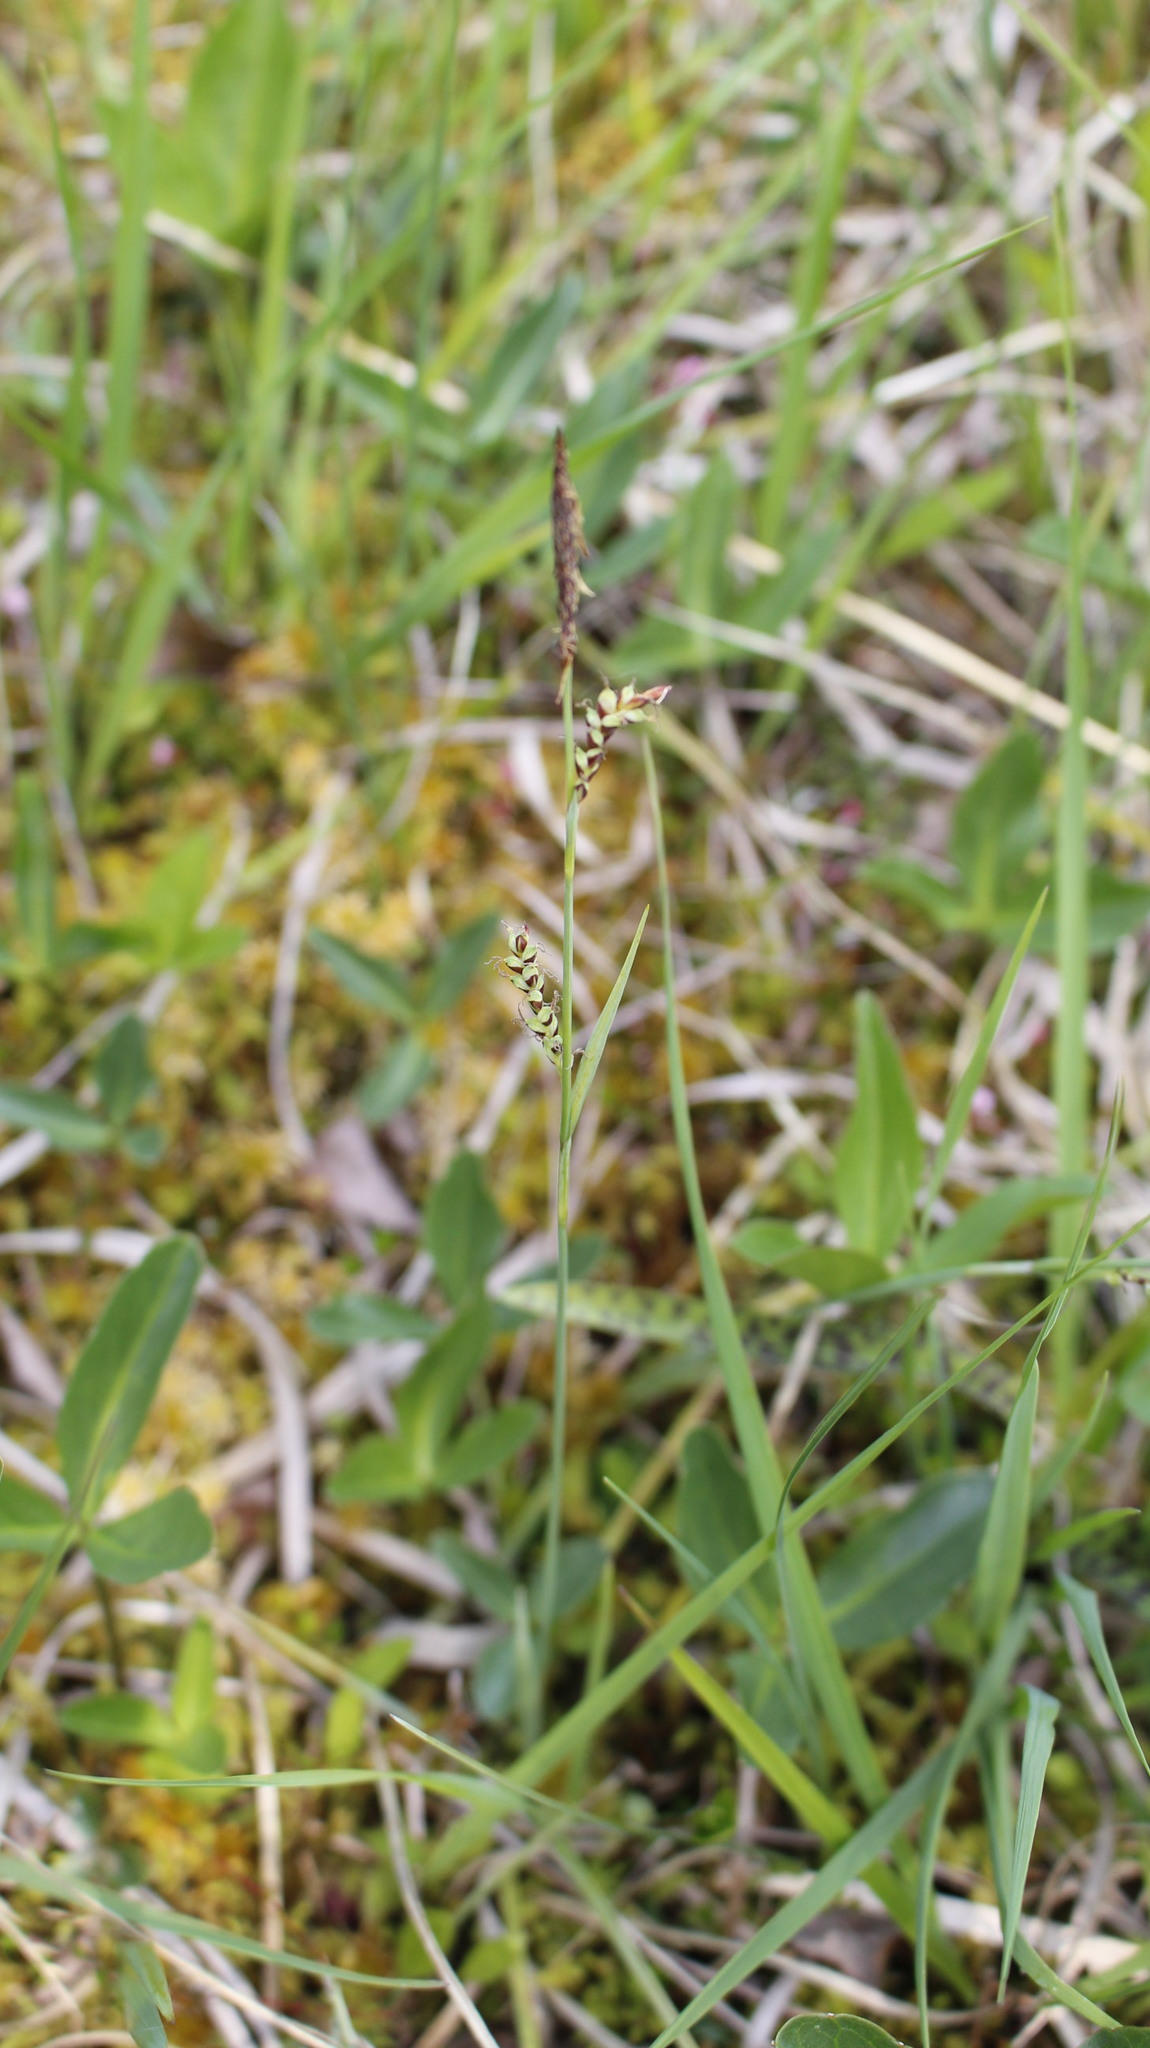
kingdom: Plantae
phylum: Tracheophyta
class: Liliopsida
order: Poales
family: Cyperaceae
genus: Carex
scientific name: Carex panicea
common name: Carnation sedge
